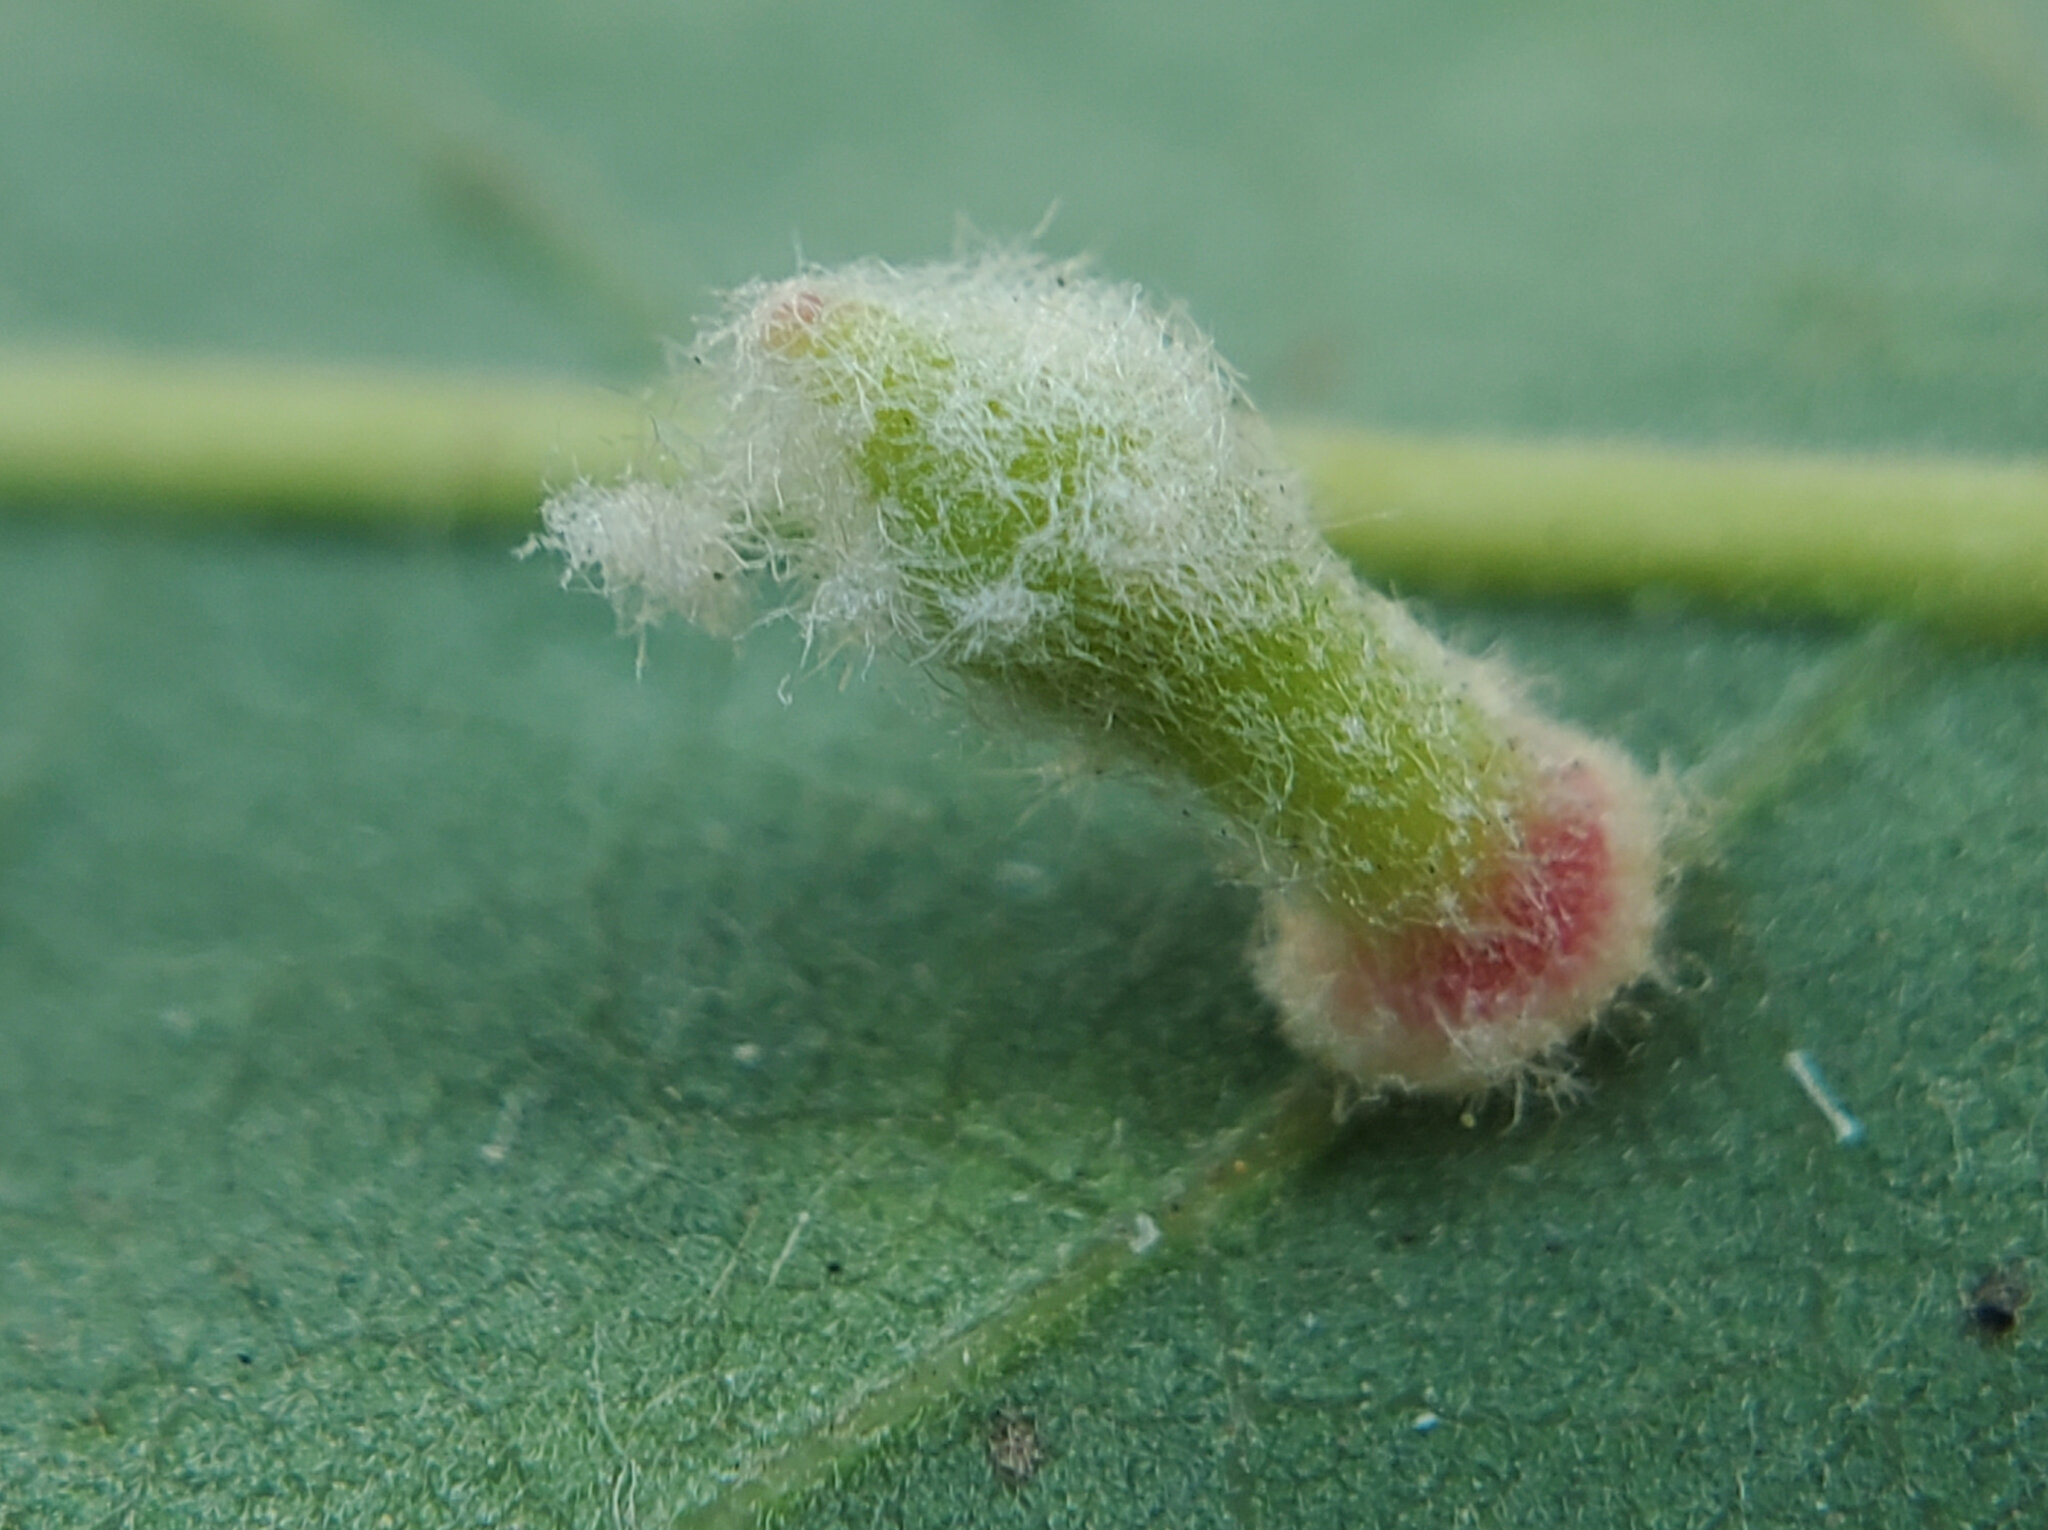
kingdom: Animalia
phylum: Arthropoda
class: Insecta
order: Hymenoptera
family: Cynipidae
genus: Atrusca
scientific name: Atrusca
